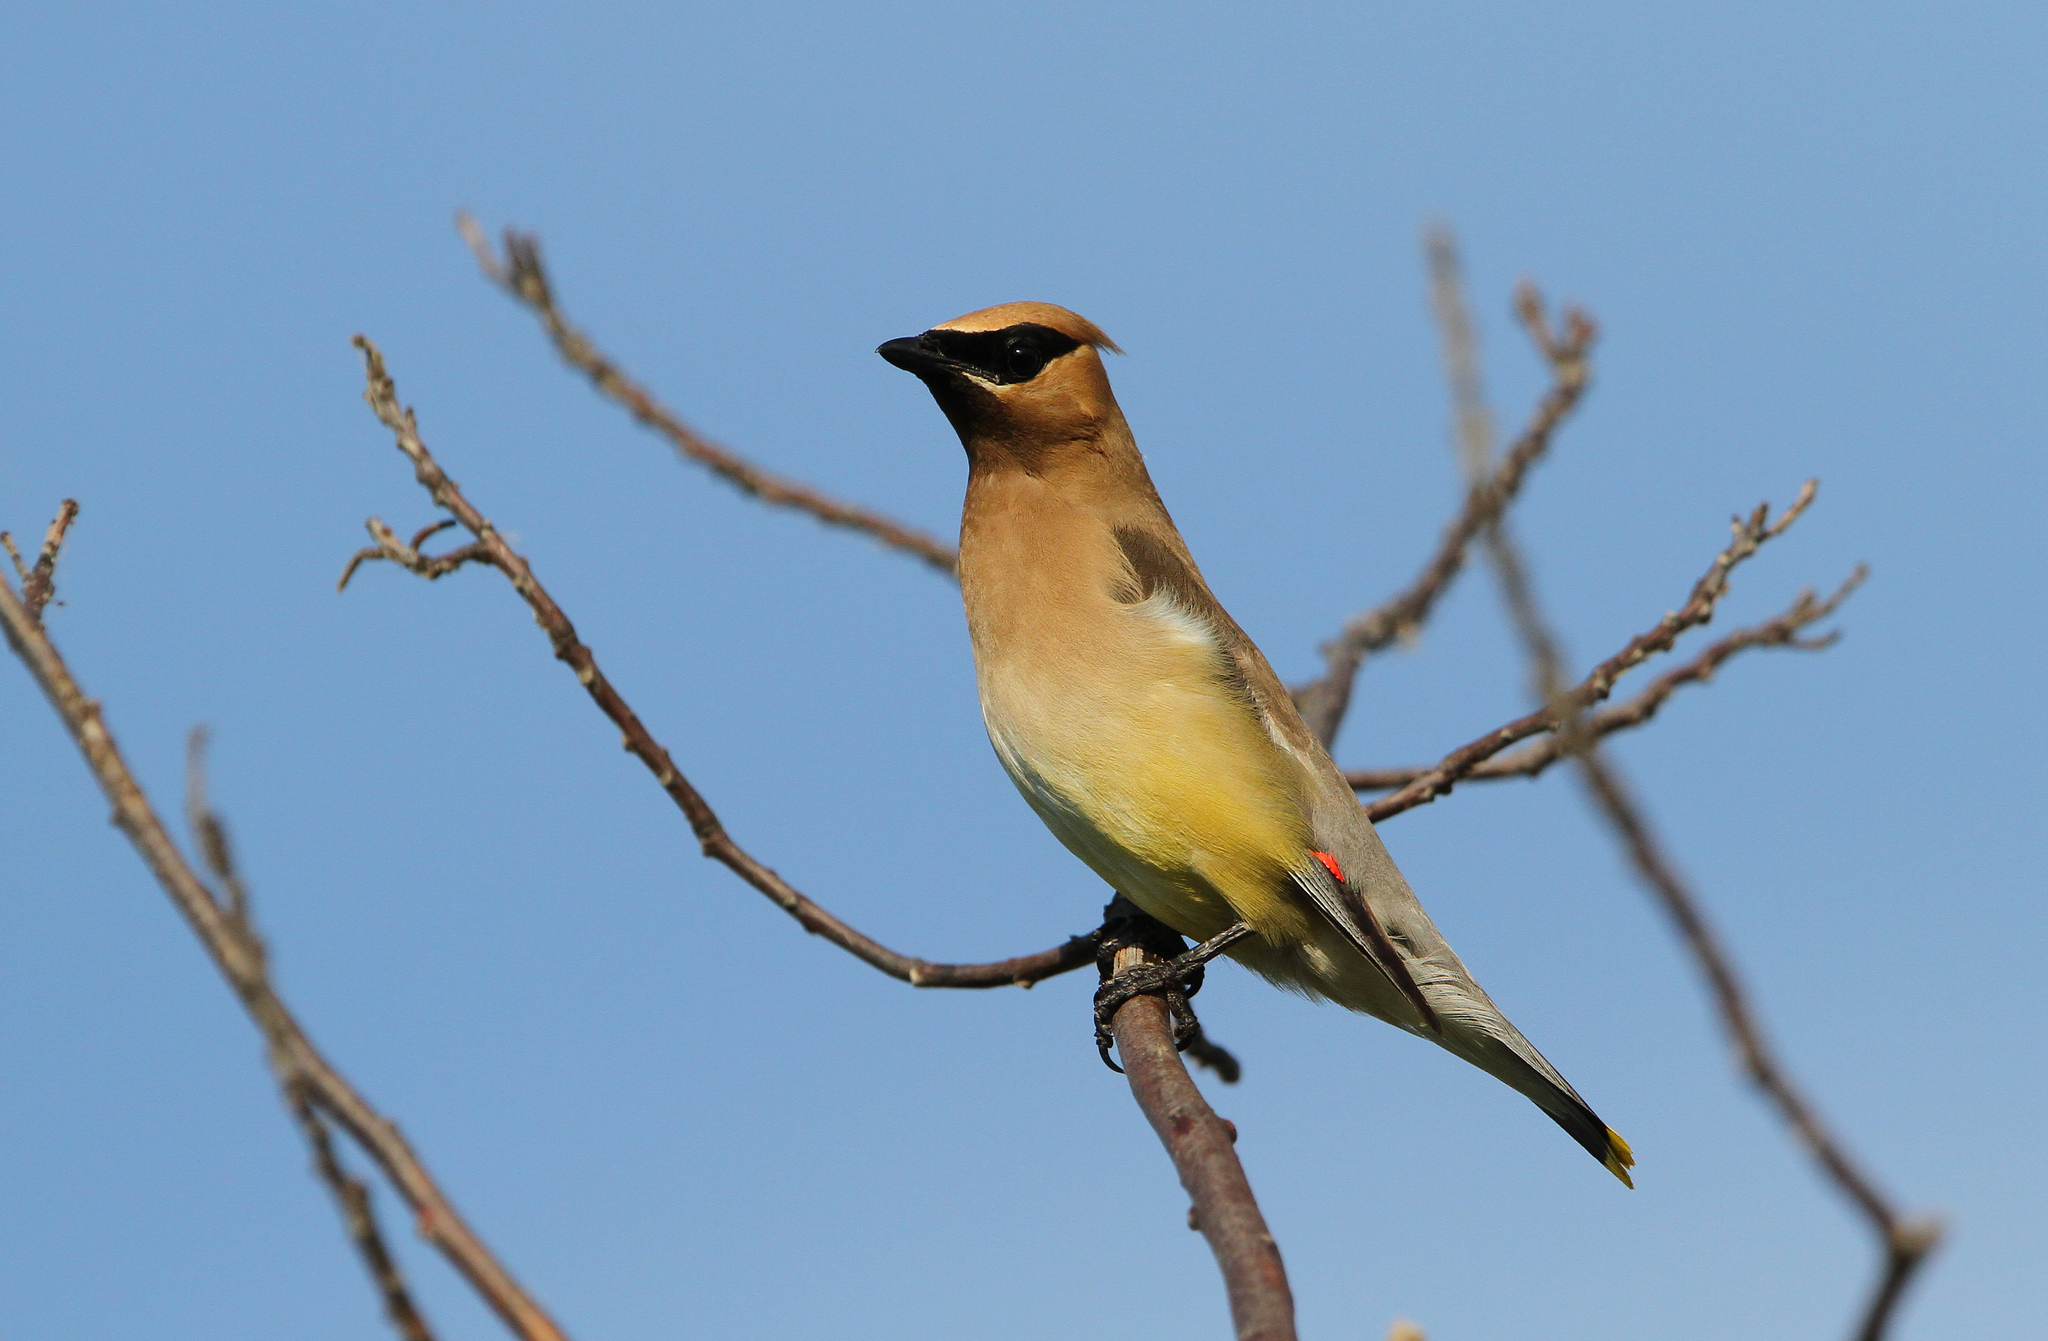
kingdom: Animalia
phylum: Chordata
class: Aves
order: Passeriformes
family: Bombycillidae
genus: Bombycilla
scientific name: Bombycilla cedrorum
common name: Cedar waxwing
